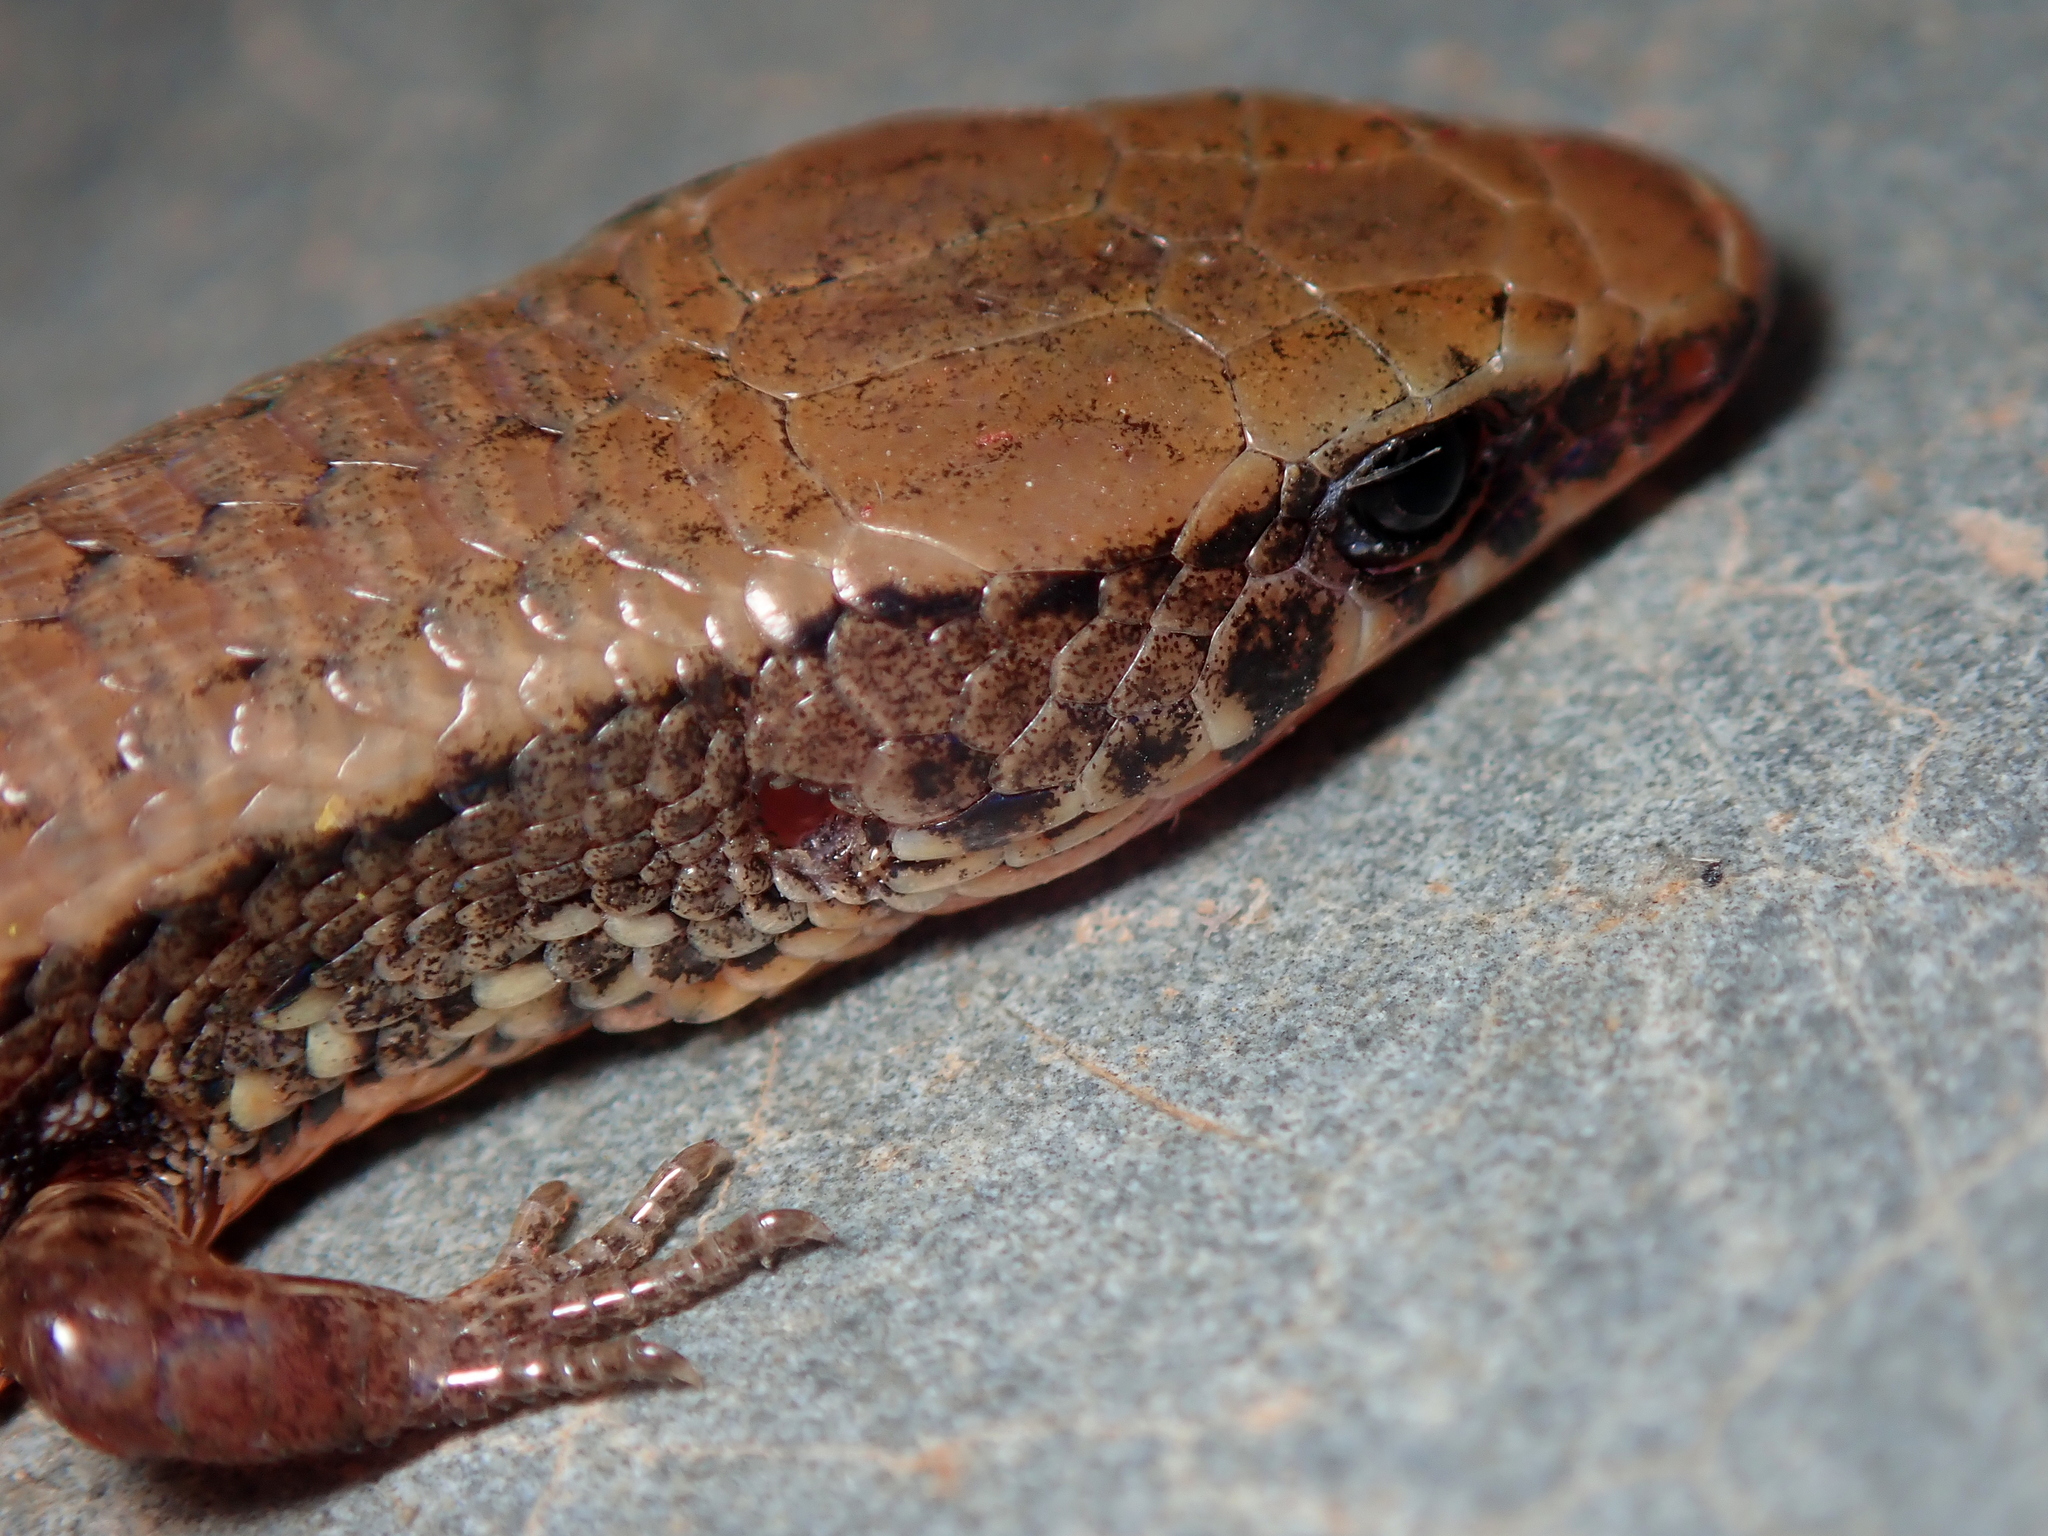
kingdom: Animalia
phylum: Chordata
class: Squamata
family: Gymnophthalmidae
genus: Colobosaura
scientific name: Colobosaura modesta
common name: Bahia colobosaura
